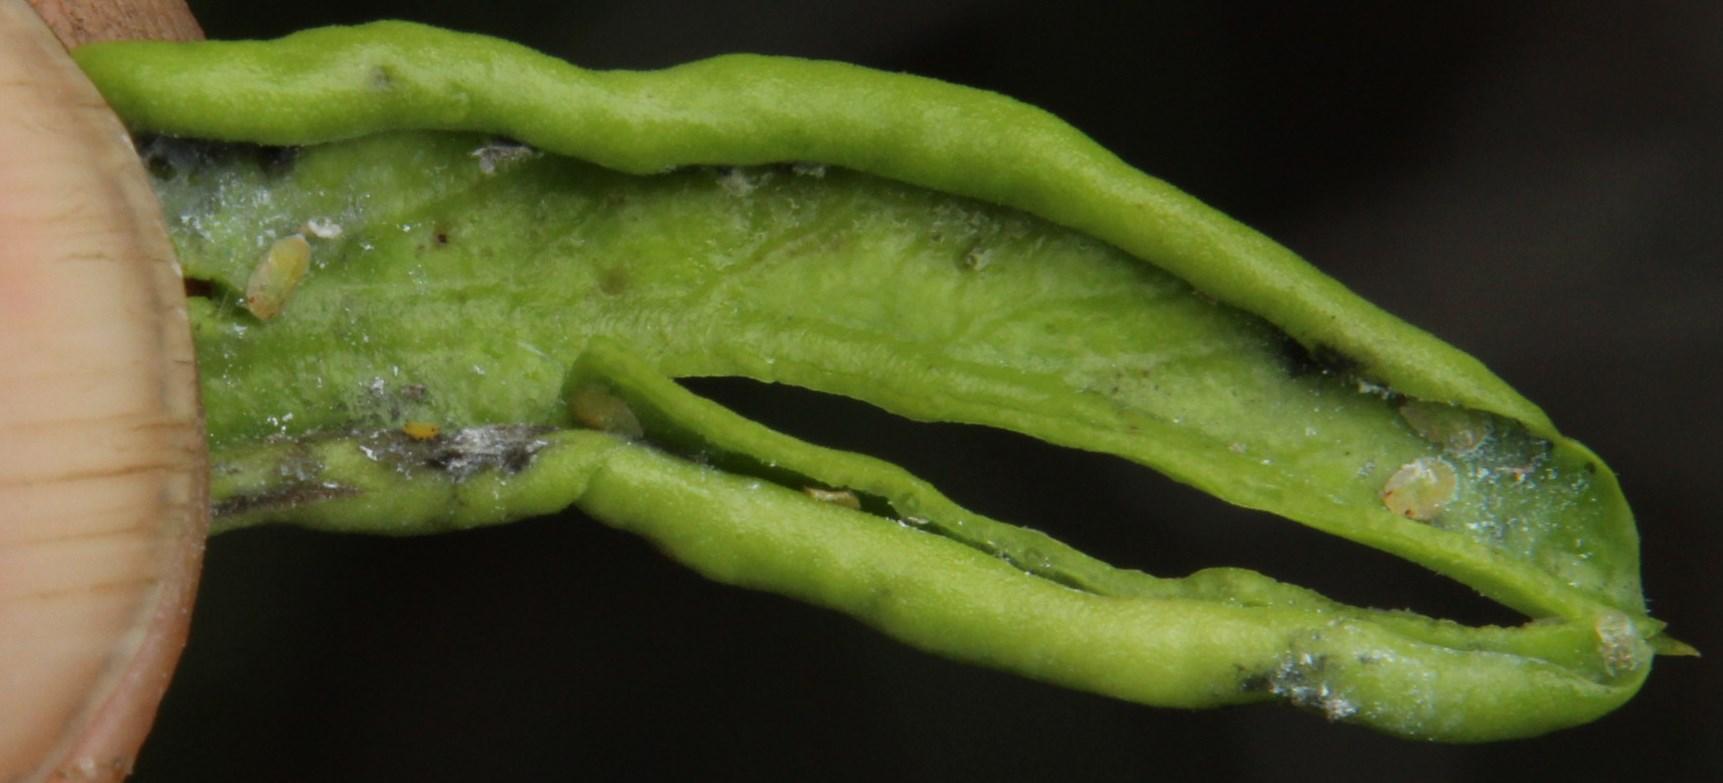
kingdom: Animalia
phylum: Arthropoda
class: Insecta
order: Hemiptera
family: Liviidae
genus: Diaphorina
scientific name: Diaphorina carissae
